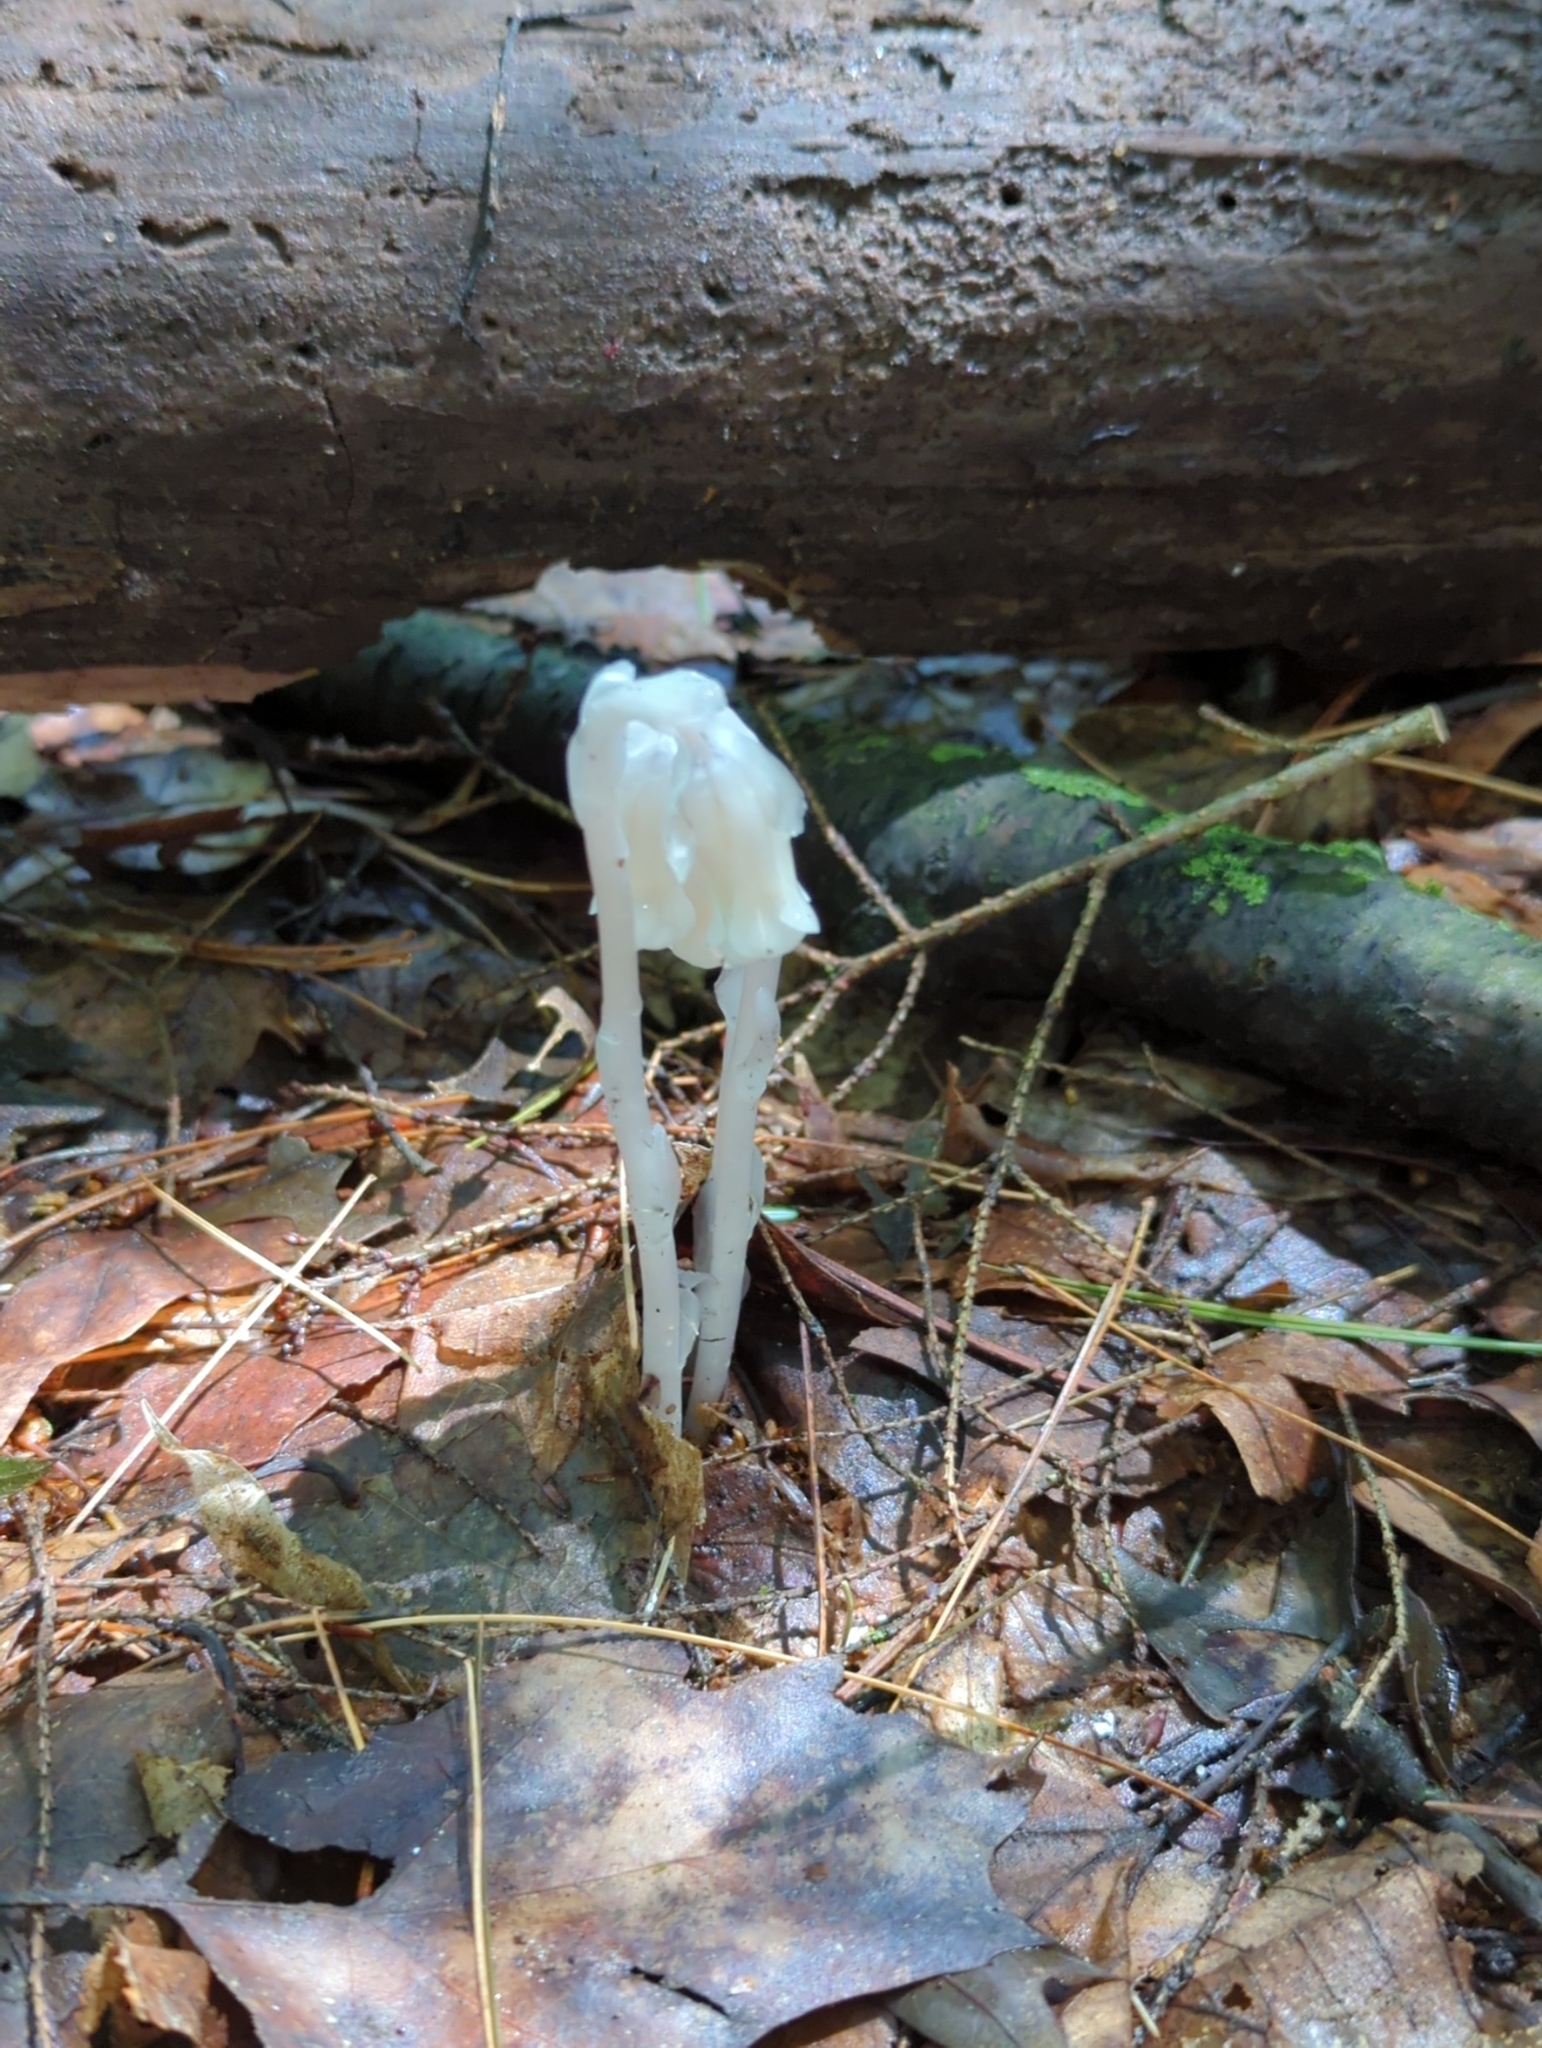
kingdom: Plantae
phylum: Tracheophyta
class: Magnoliopsida
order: Ericales
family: Ericaceae
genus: Monotropa
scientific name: Monotropa uniflora
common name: Convulsion root
